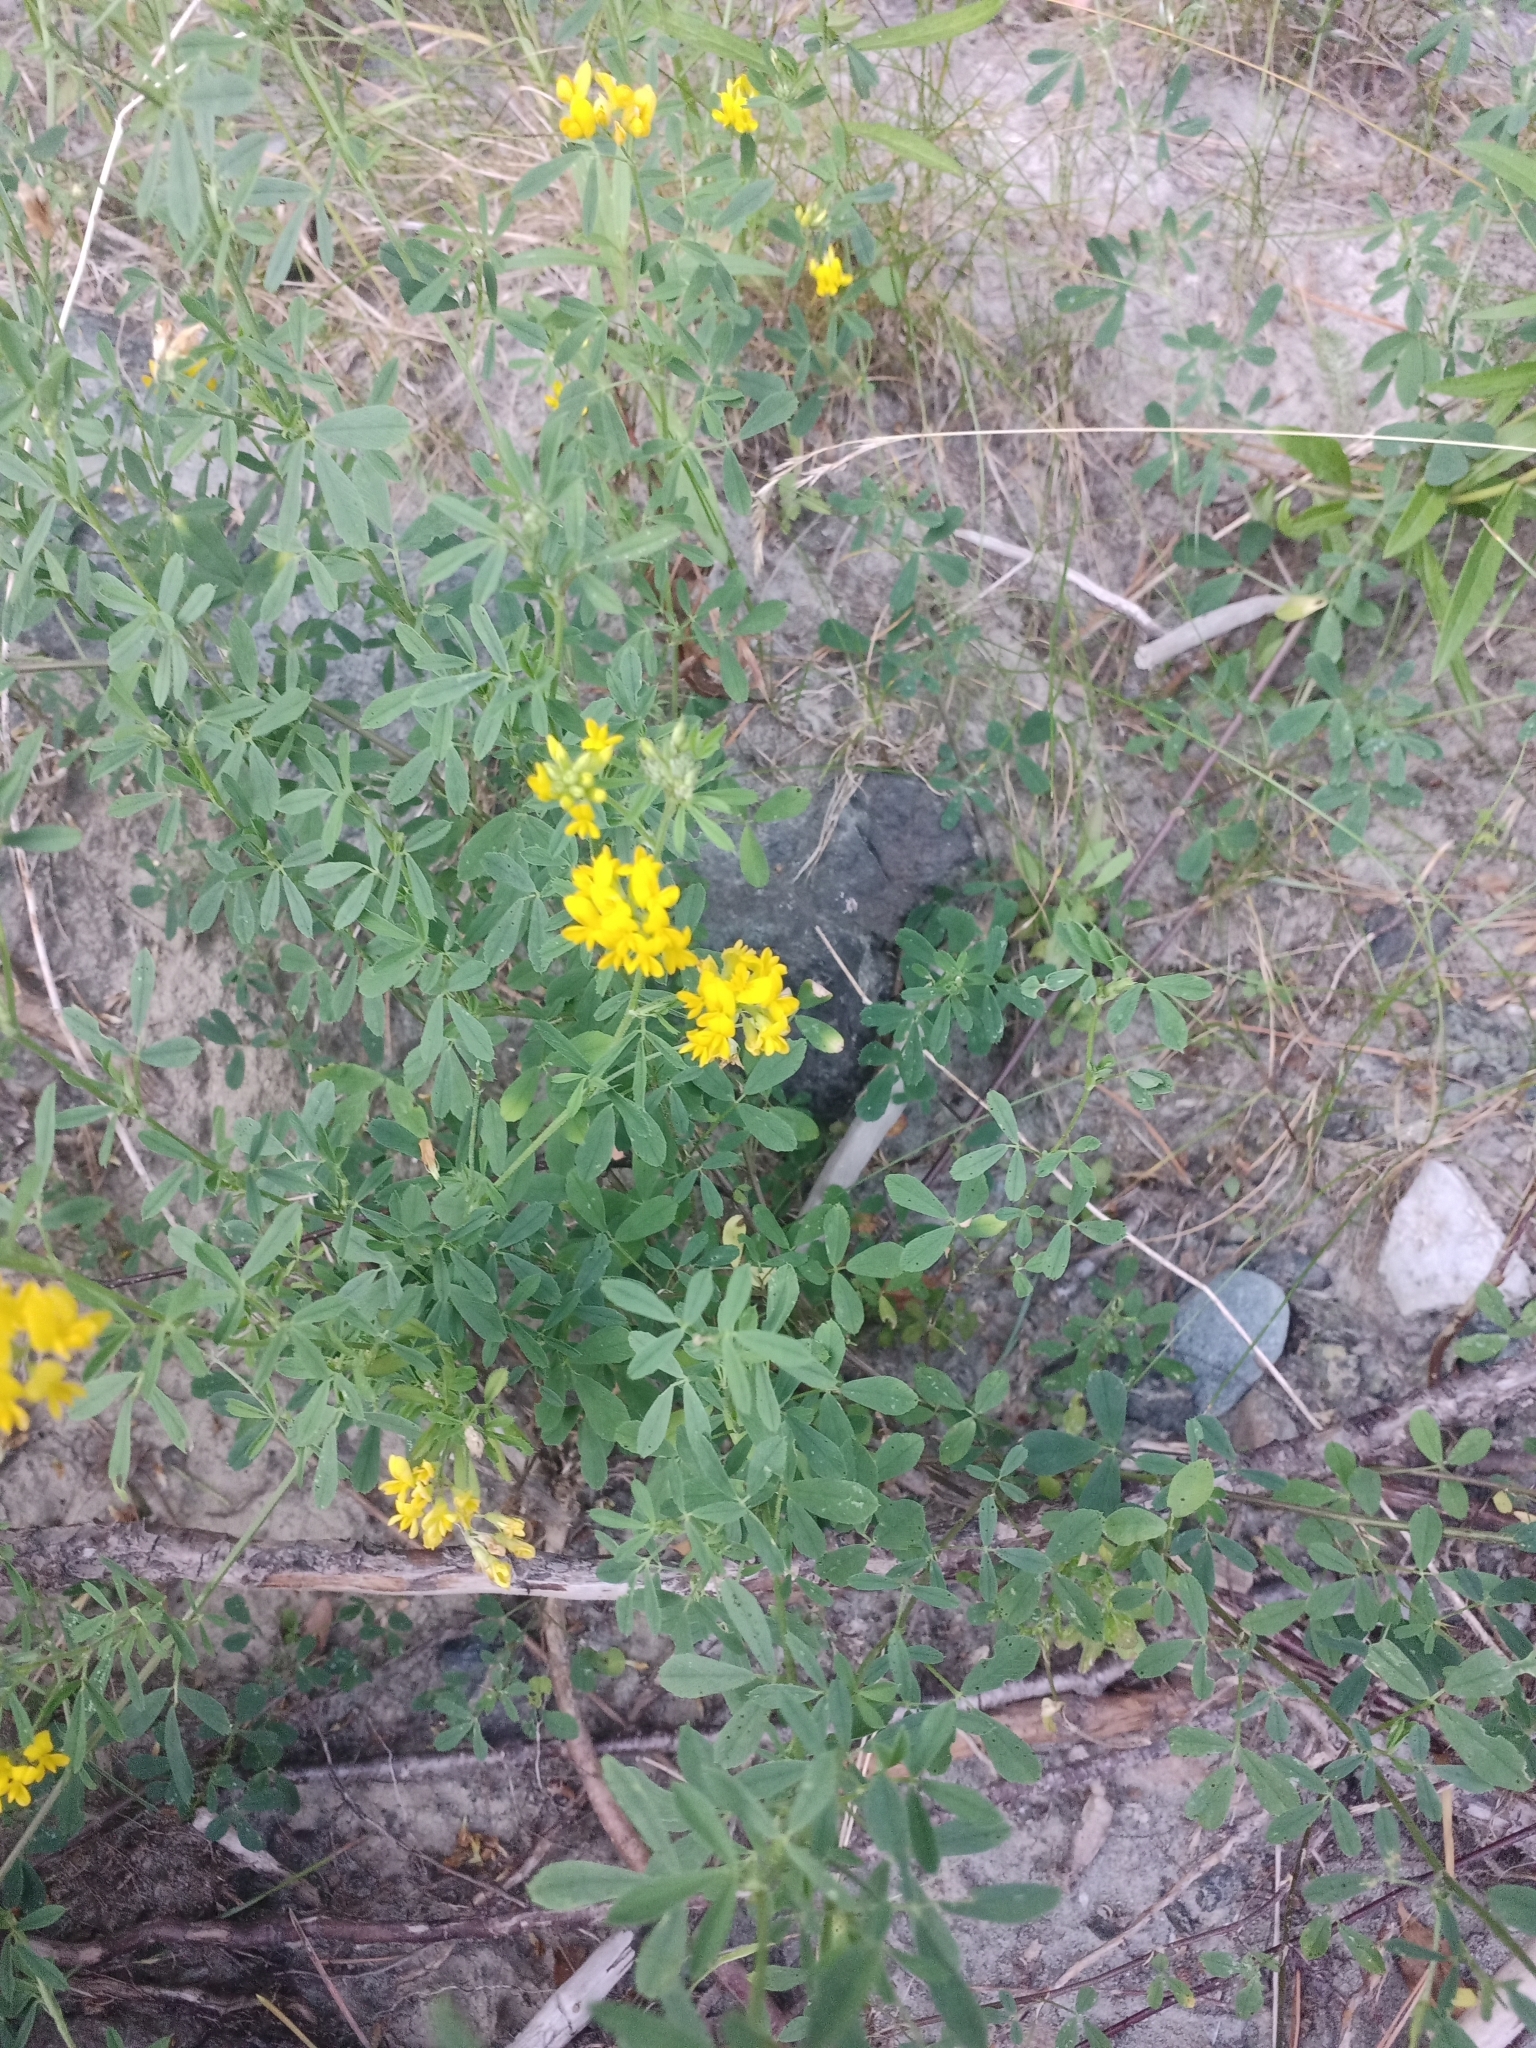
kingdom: Plantae
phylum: Tracheophyta
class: Magnoliopsida
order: Fabales
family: Fabaceae
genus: Medicago
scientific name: Medicago falcata
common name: Sickle medick
